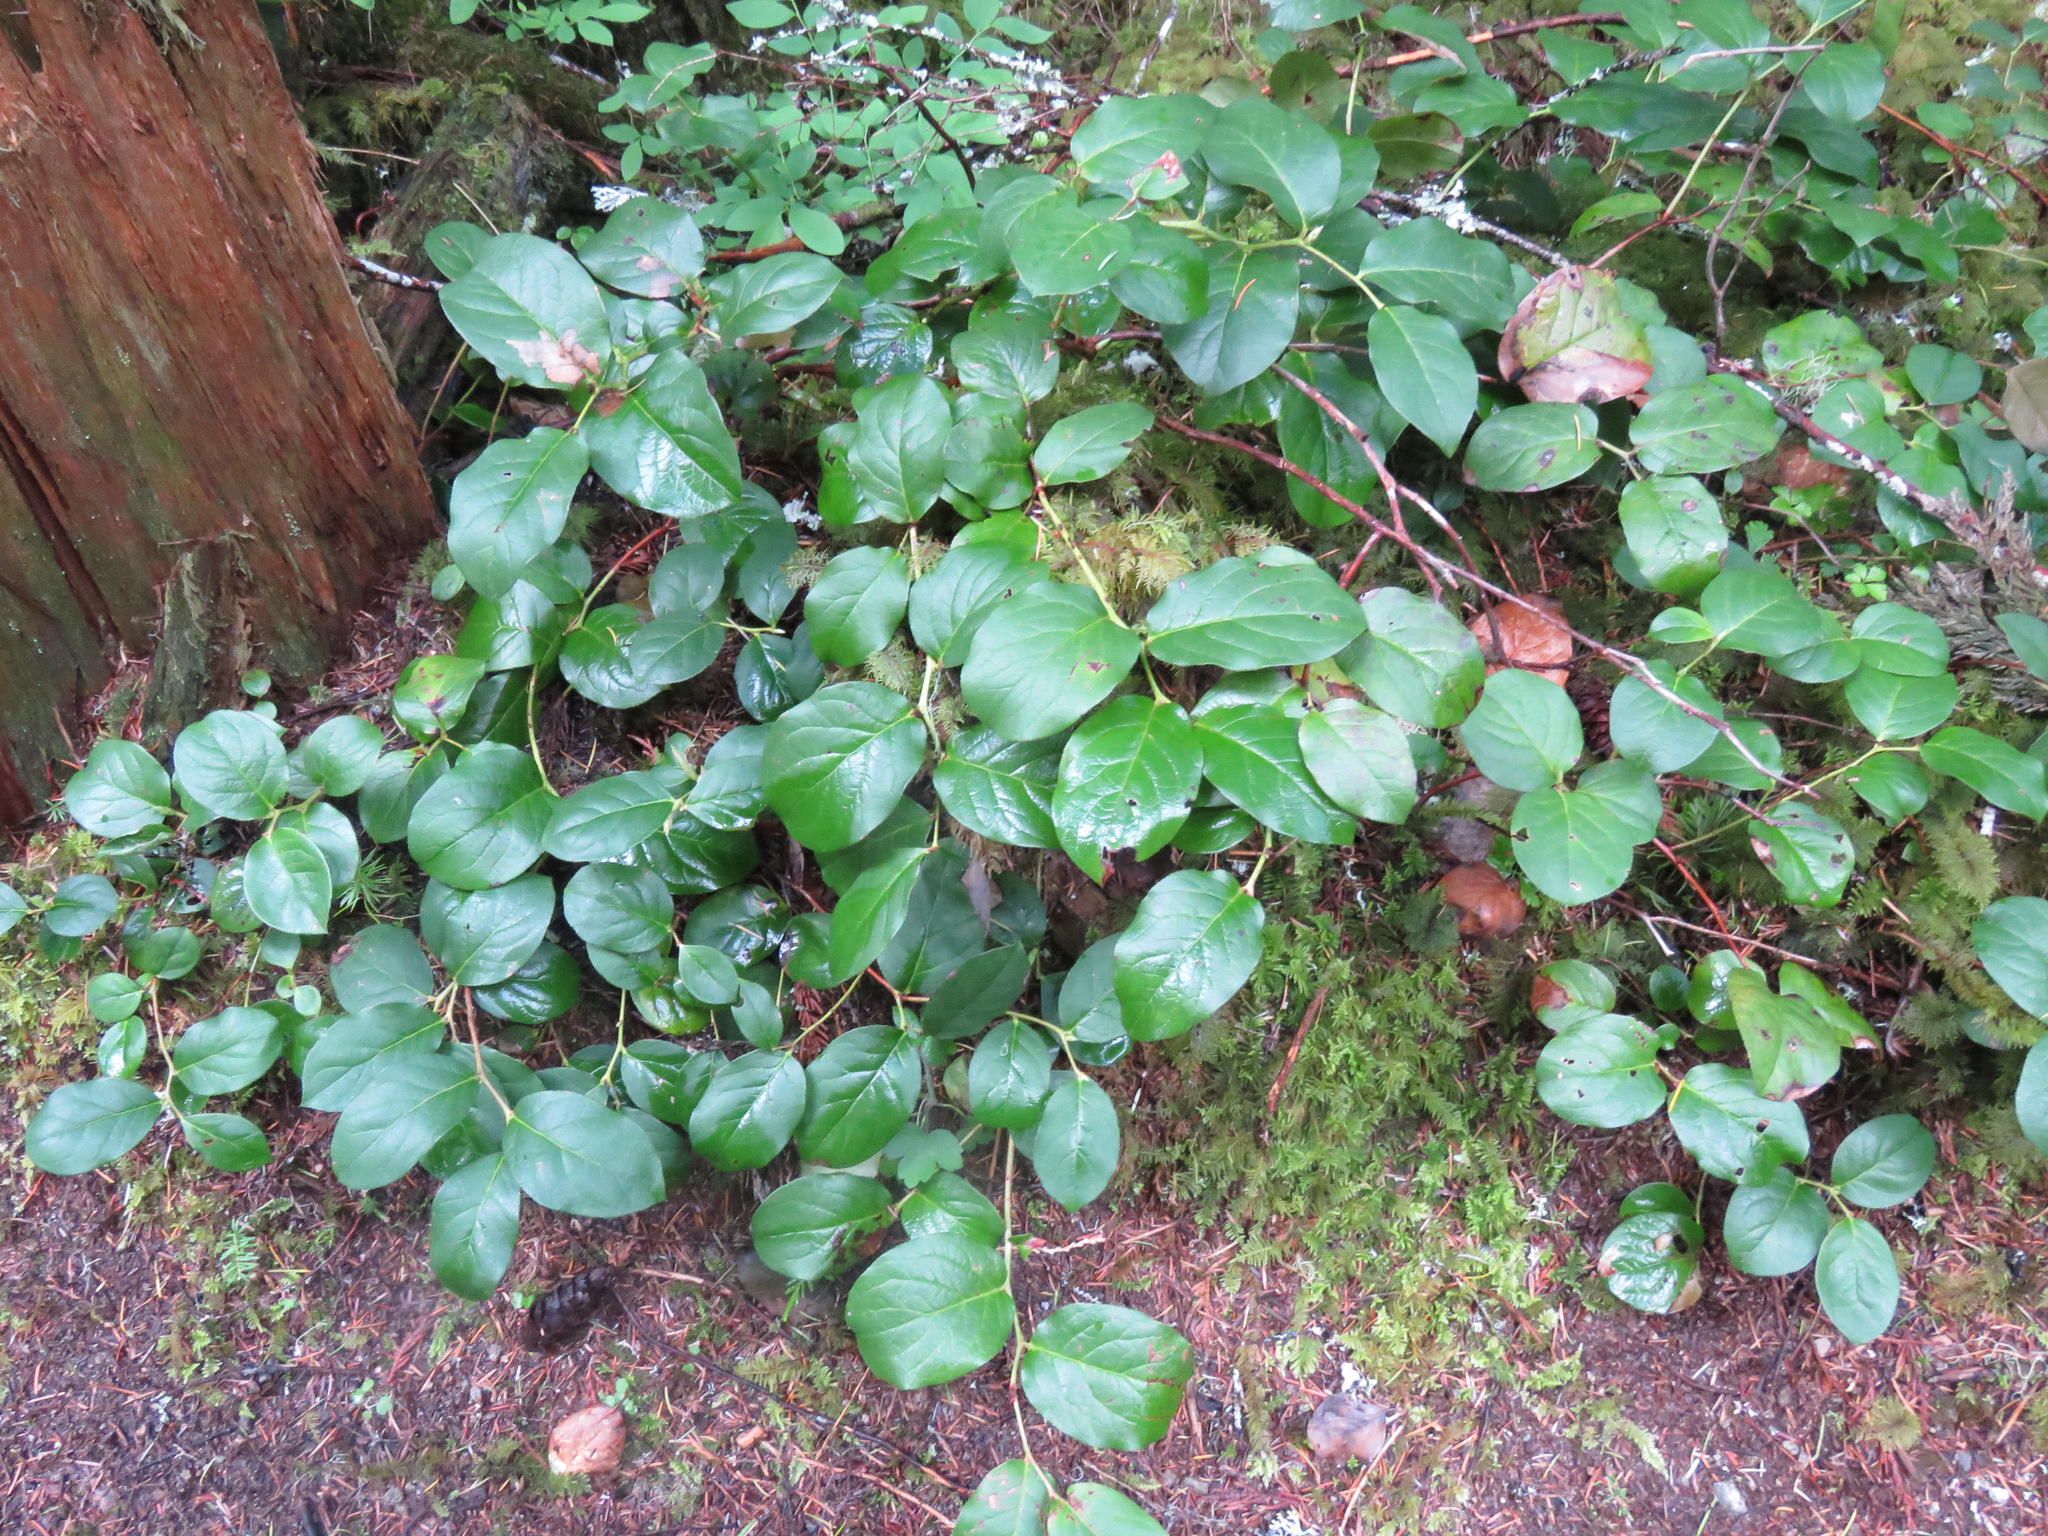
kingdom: Plantae
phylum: Tracheophyta
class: Magnoliopsida
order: Ericales
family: Ericaceae
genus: Gaultheria
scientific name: Gaultheria shallon
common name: Shallon
